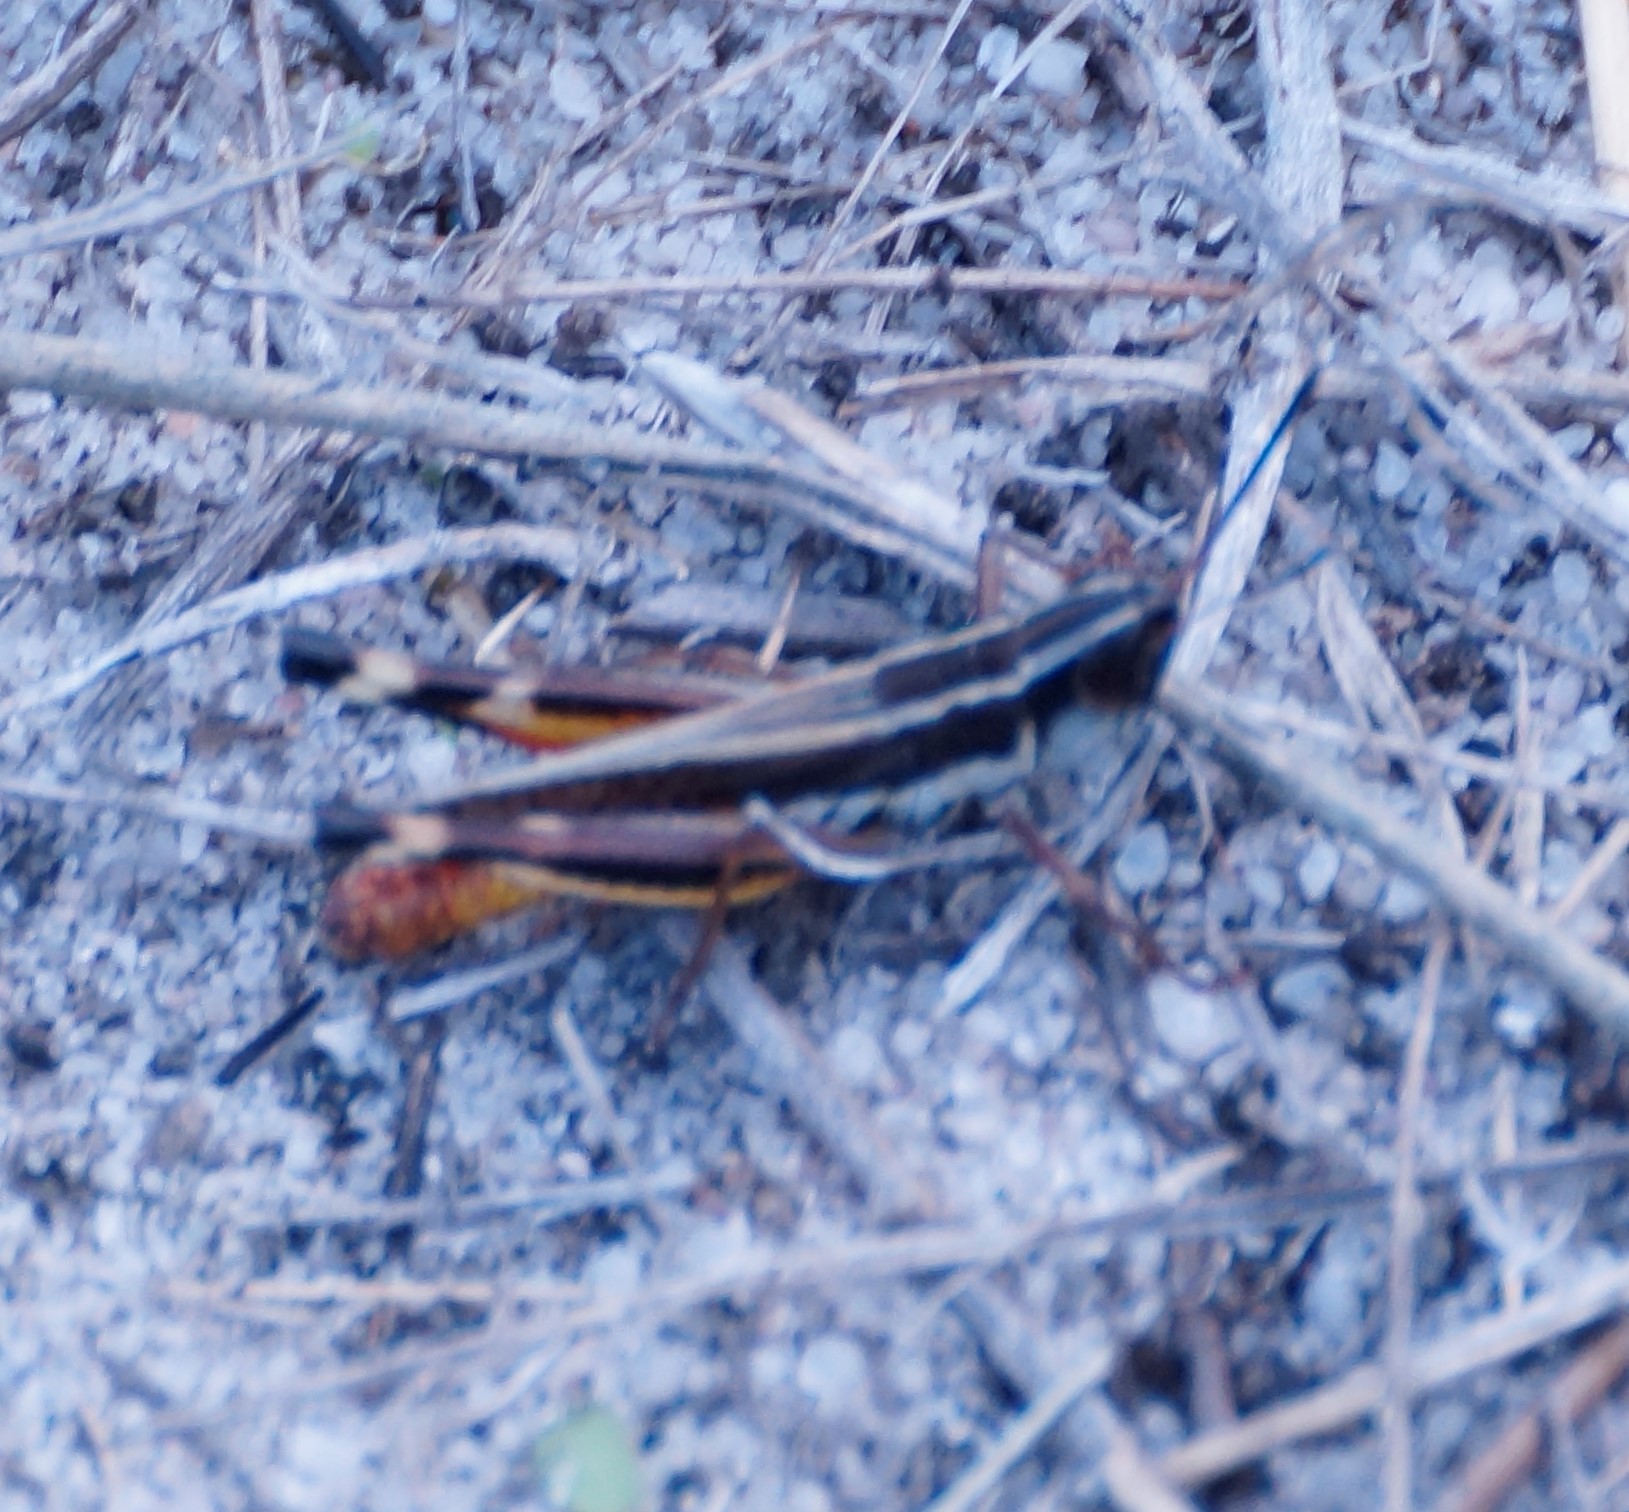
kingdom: Animalia
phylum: Arthropoda
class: Insecta
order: Orthoptera
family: Acrididae
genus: Macrotona
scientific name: Macrotona australis
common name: Common macrotona
